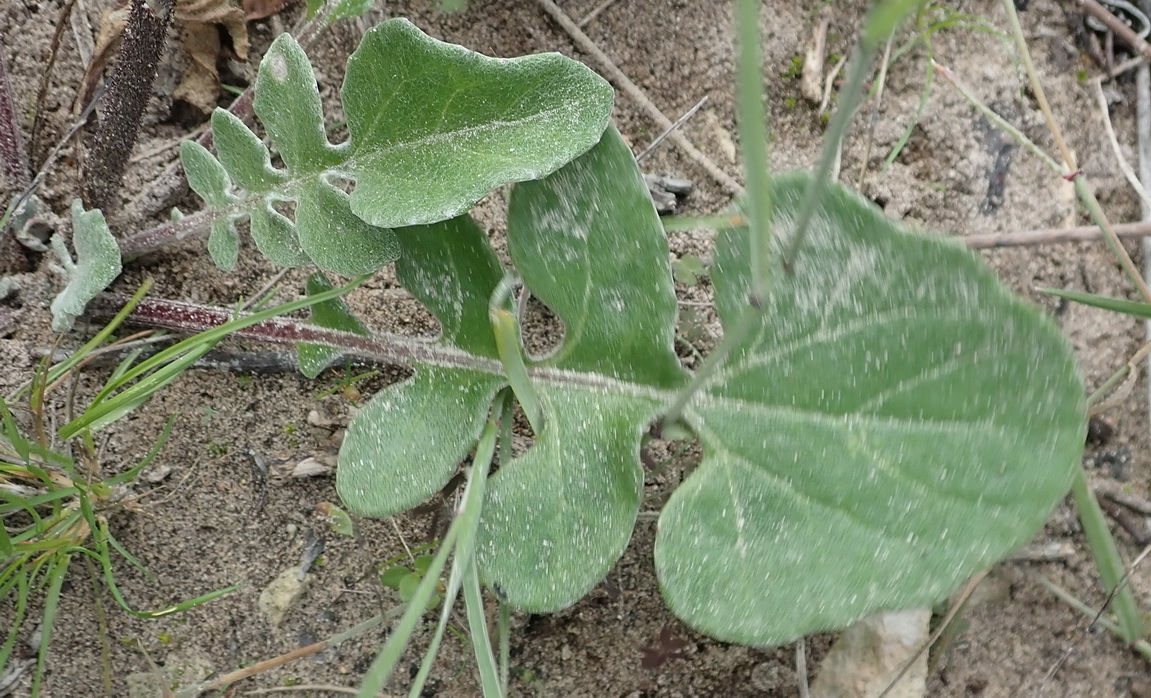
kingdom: Plantae
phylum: Tracheophyta
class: Magnoliopsida
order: Asterales
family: Asteraceae
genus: Arctotis
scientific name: Arctotis acaulis
